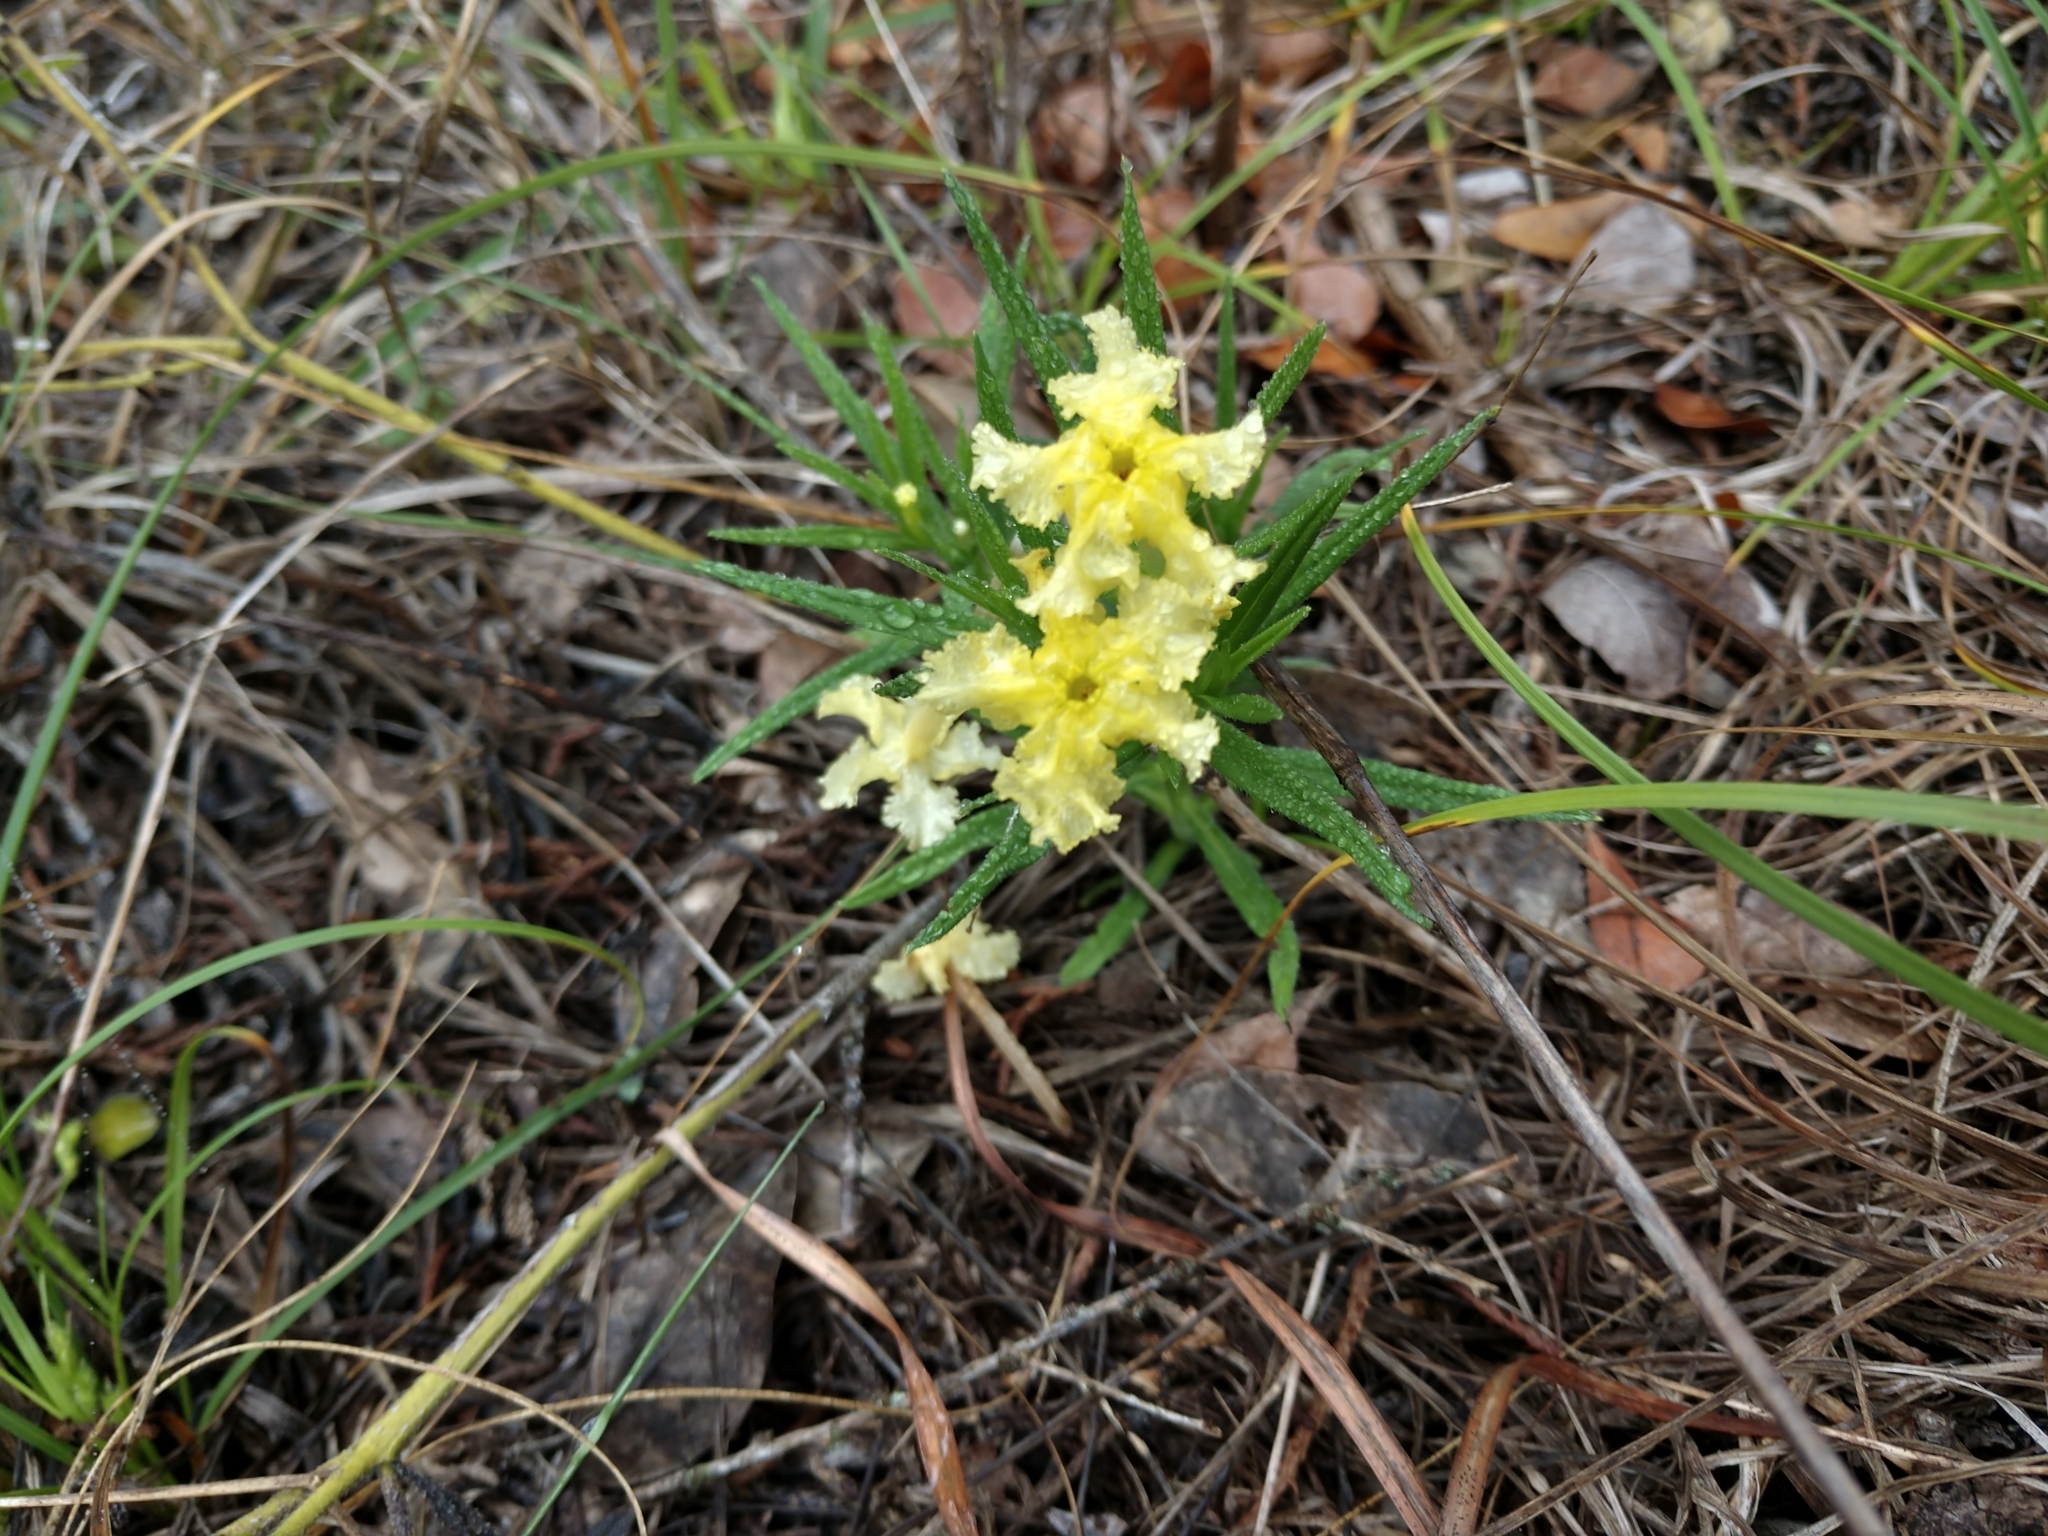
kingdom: Plantae
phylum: Tracheophyta
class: Magnoliopsida
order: Boraginales
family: Boraginaceae
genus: Lithospermum
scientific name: Lithospermum incisum
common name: Fringed gromwell
